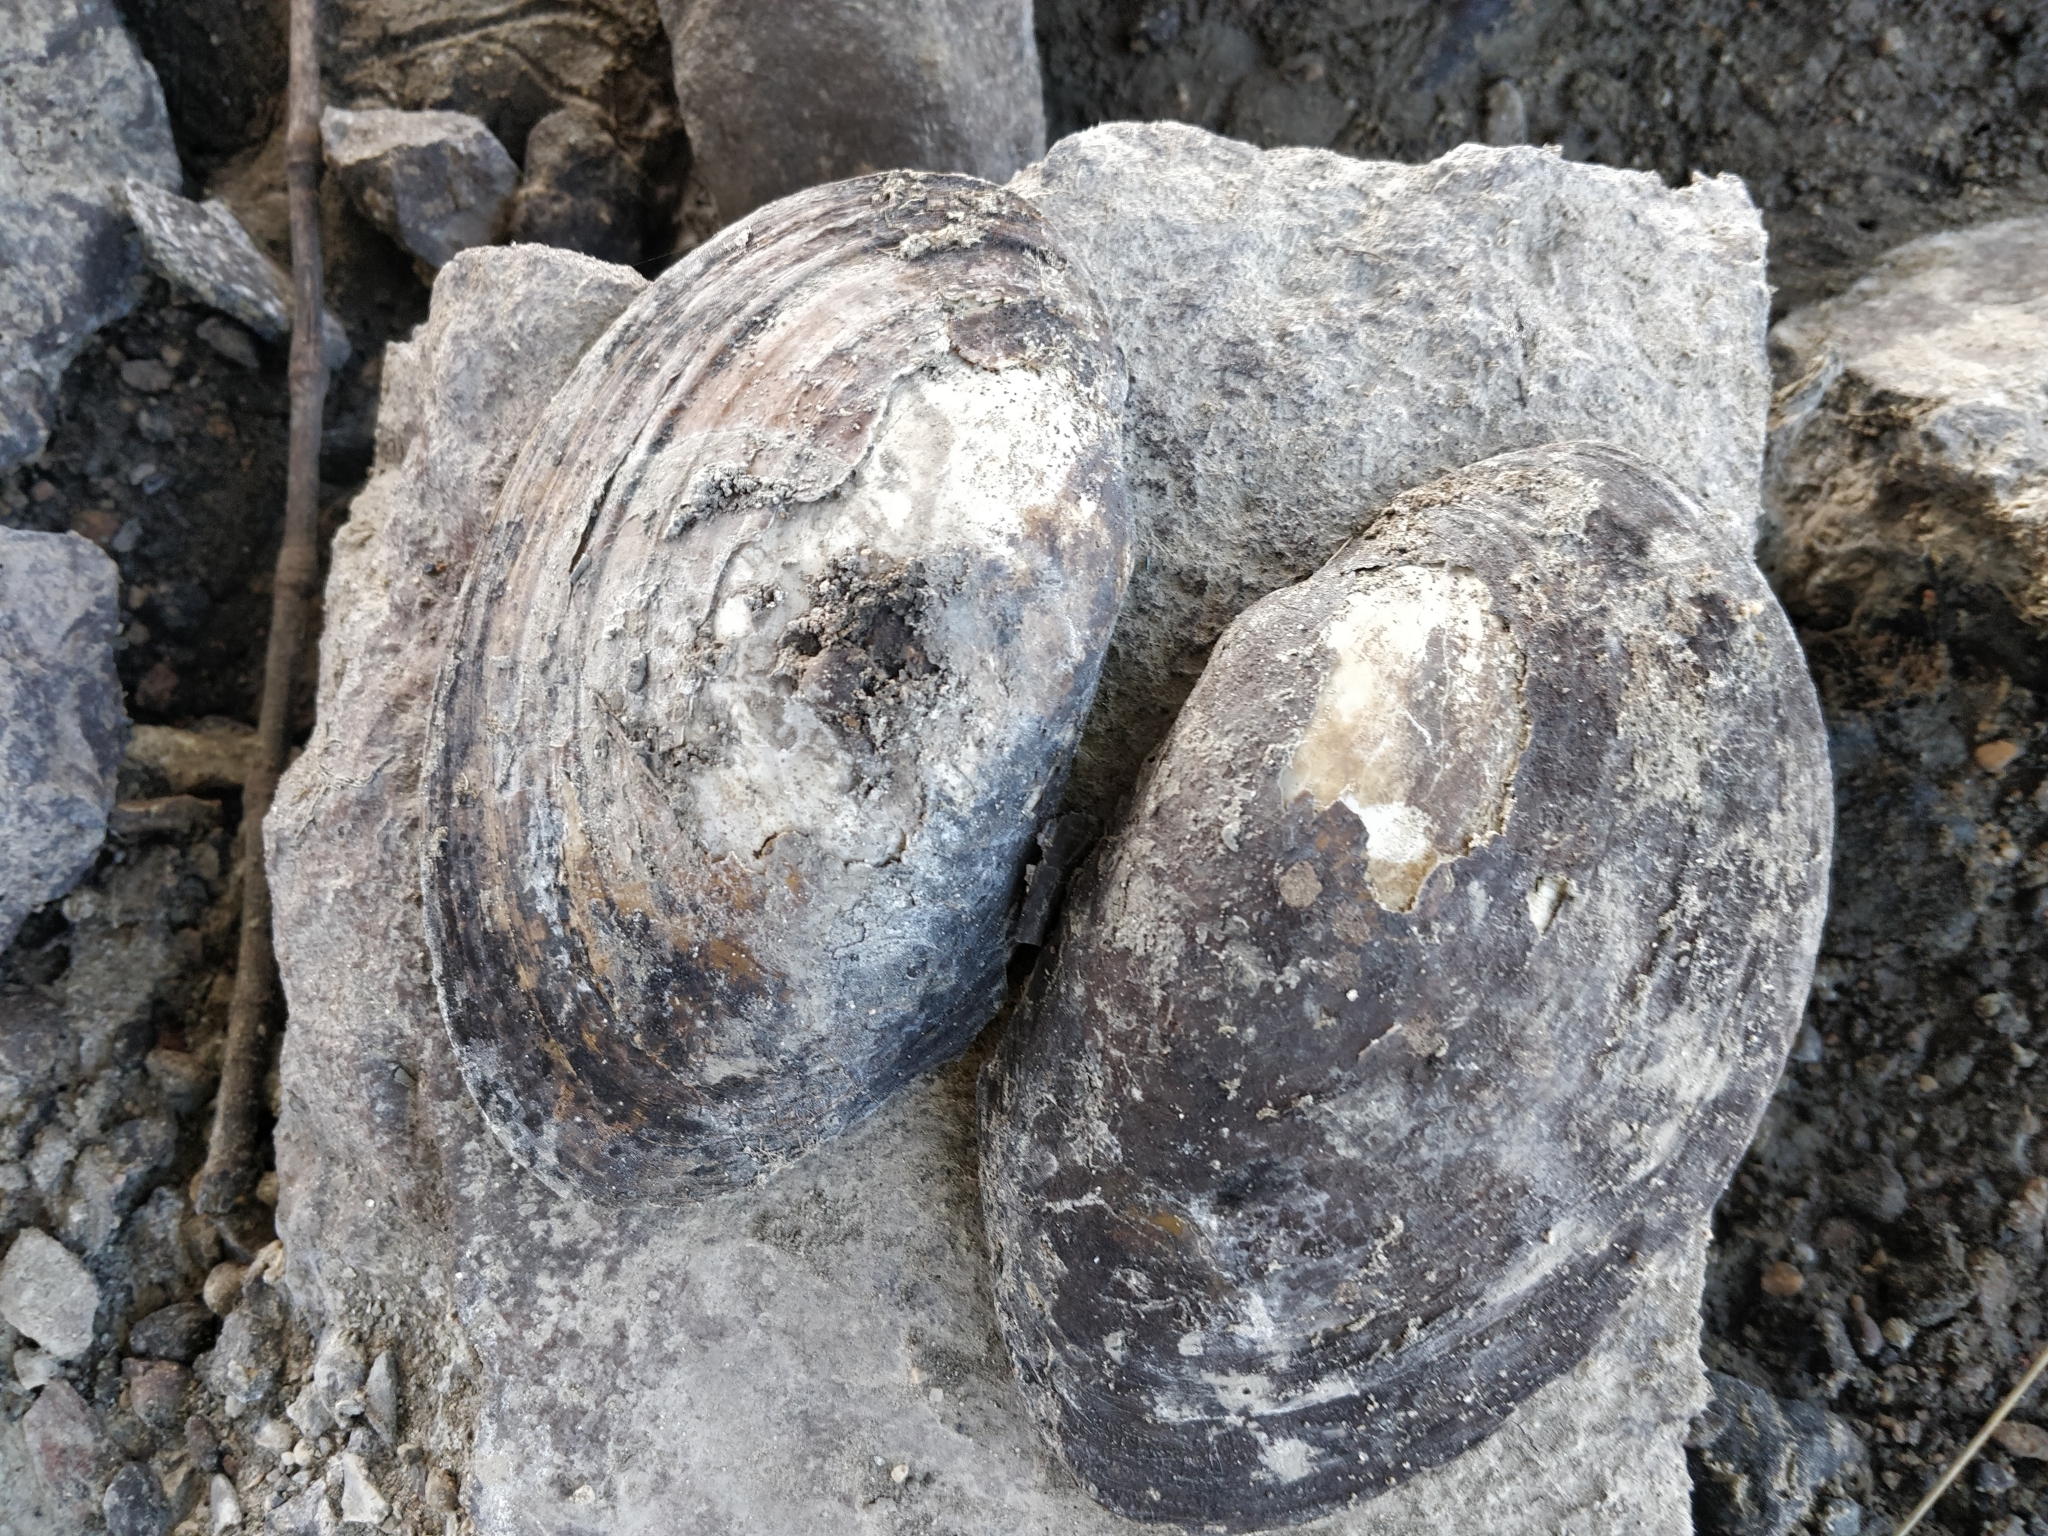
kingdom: Animalia
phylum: Mollusca
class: Bivalvia
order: Unionida
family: Unionidae
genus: Potamilus
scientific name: Potamilus fragilis
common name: Fragile papershell
